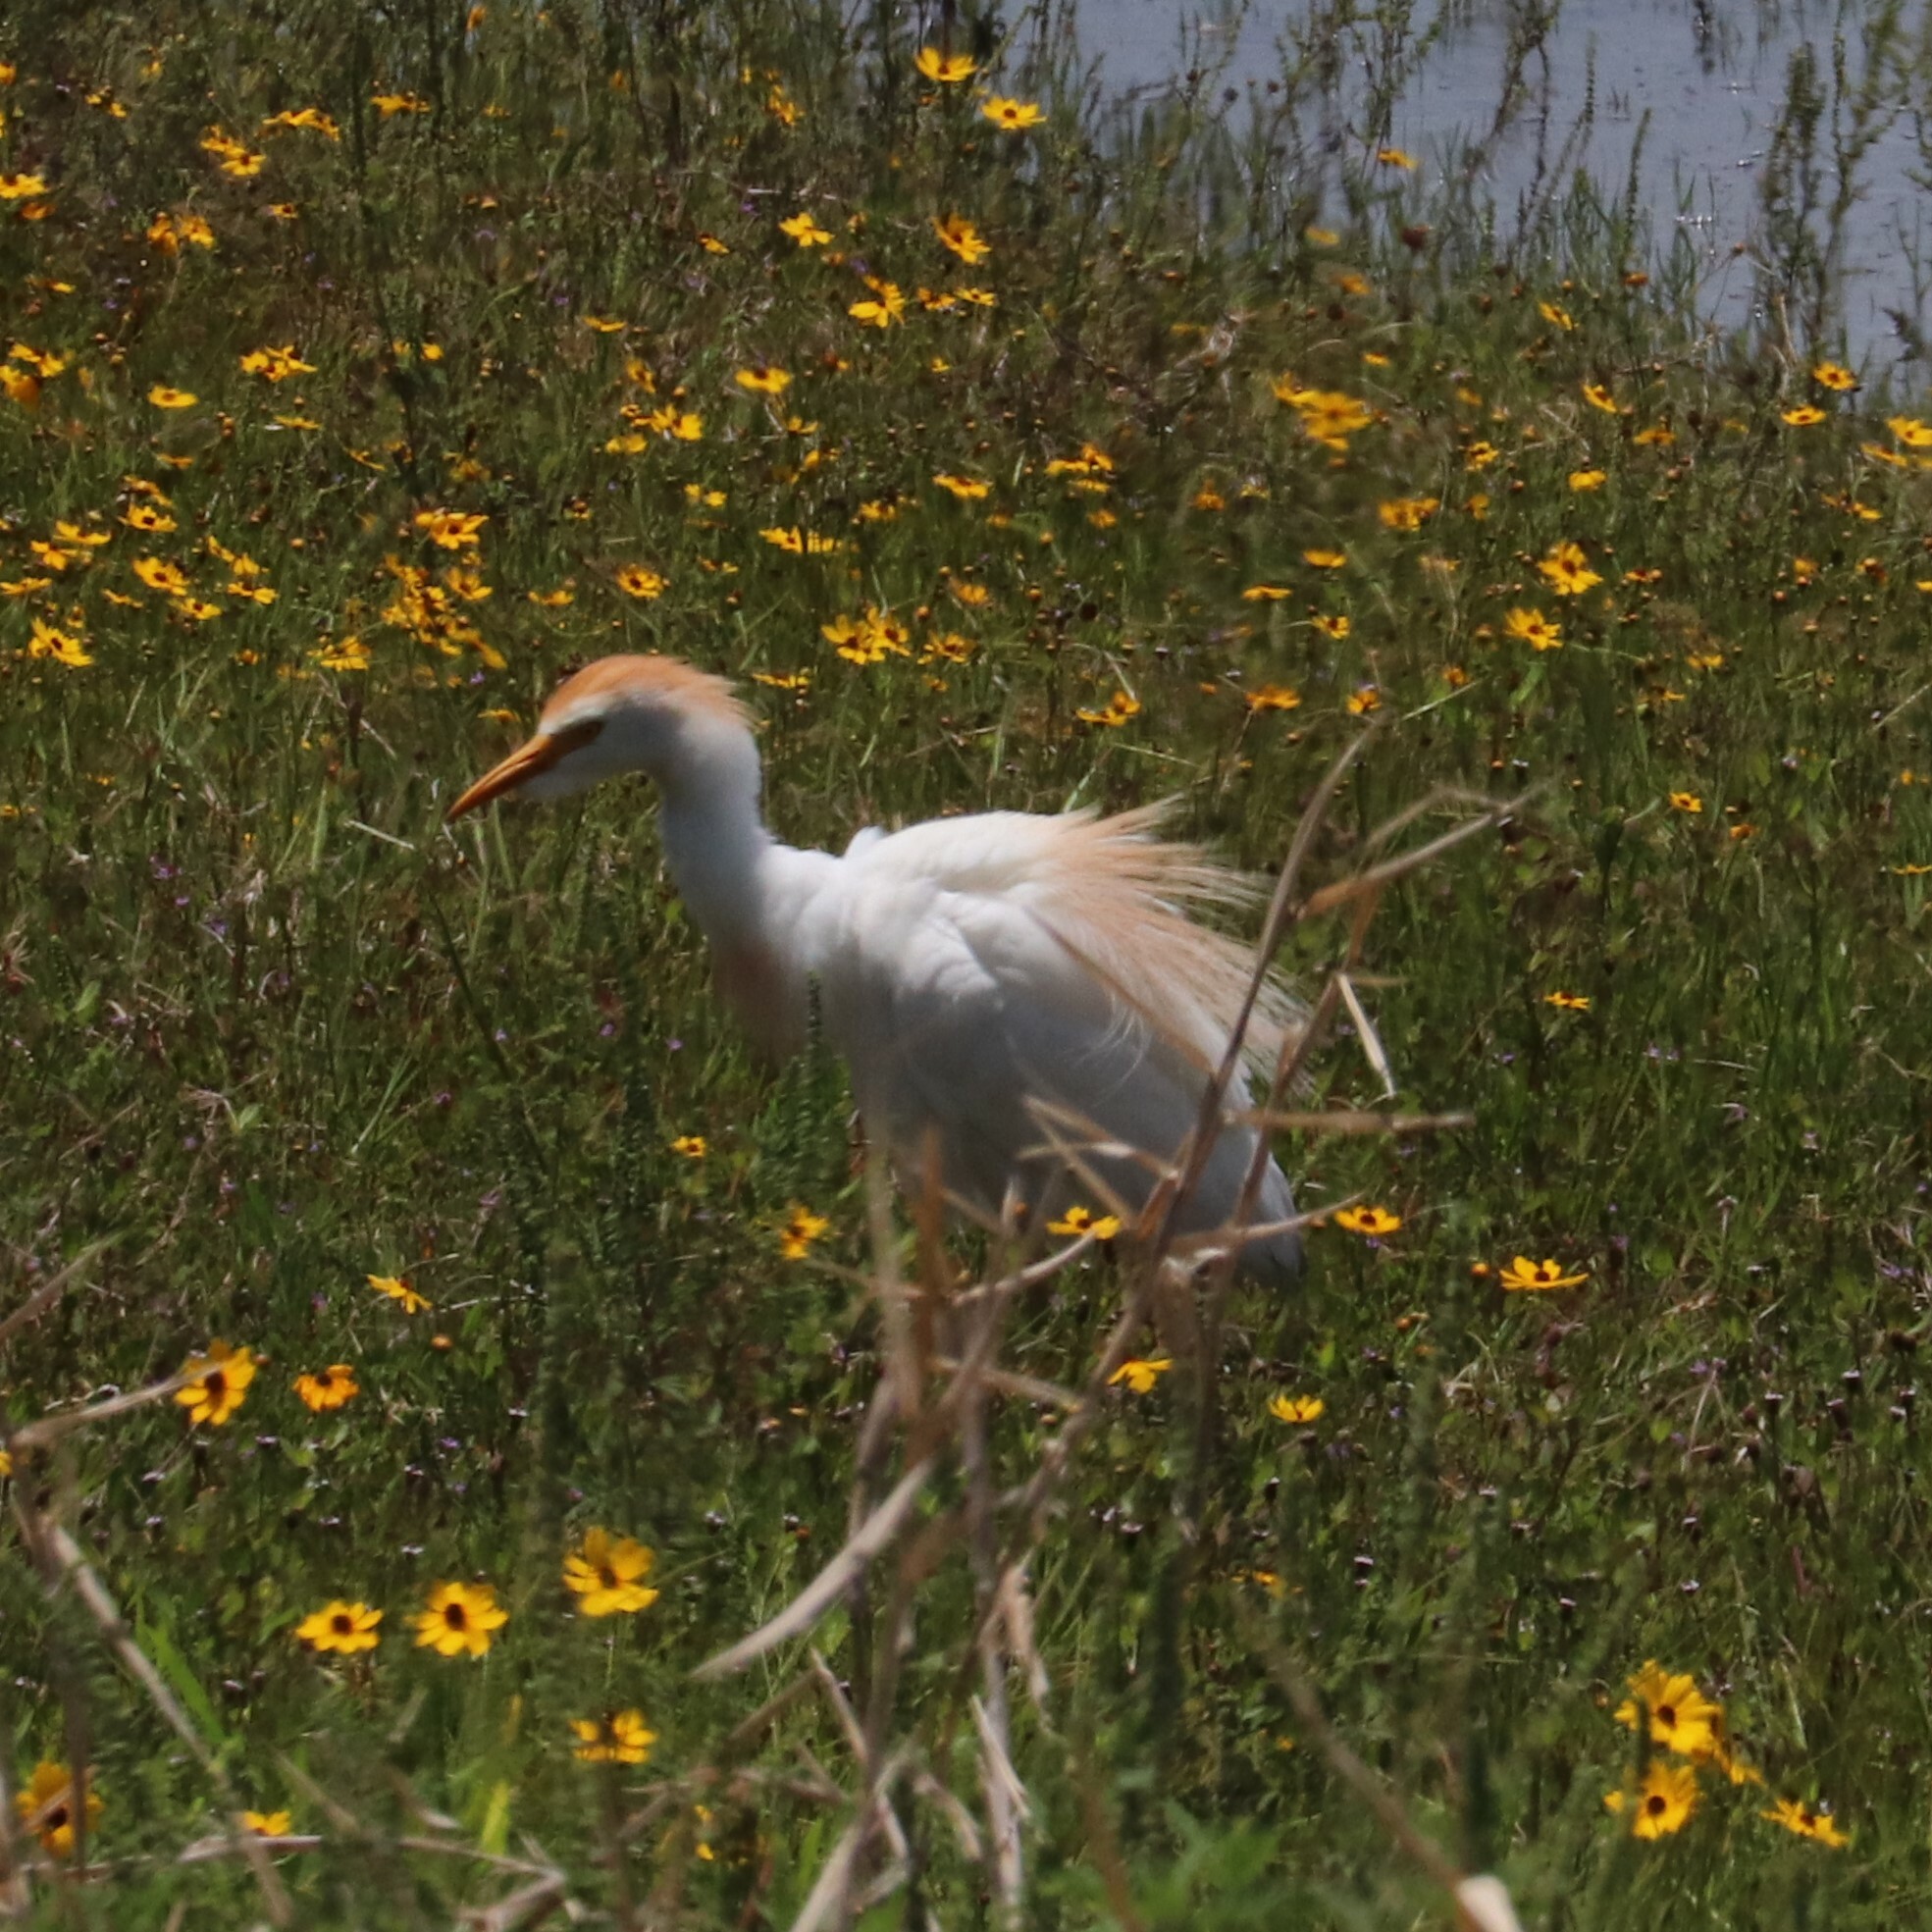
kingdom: Animalia
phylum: Chordata
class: Aves
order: Pelecaniformes
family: Ardeidae
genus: Bubulcus
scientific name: Bubulcus ibis
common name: Cattle egret
